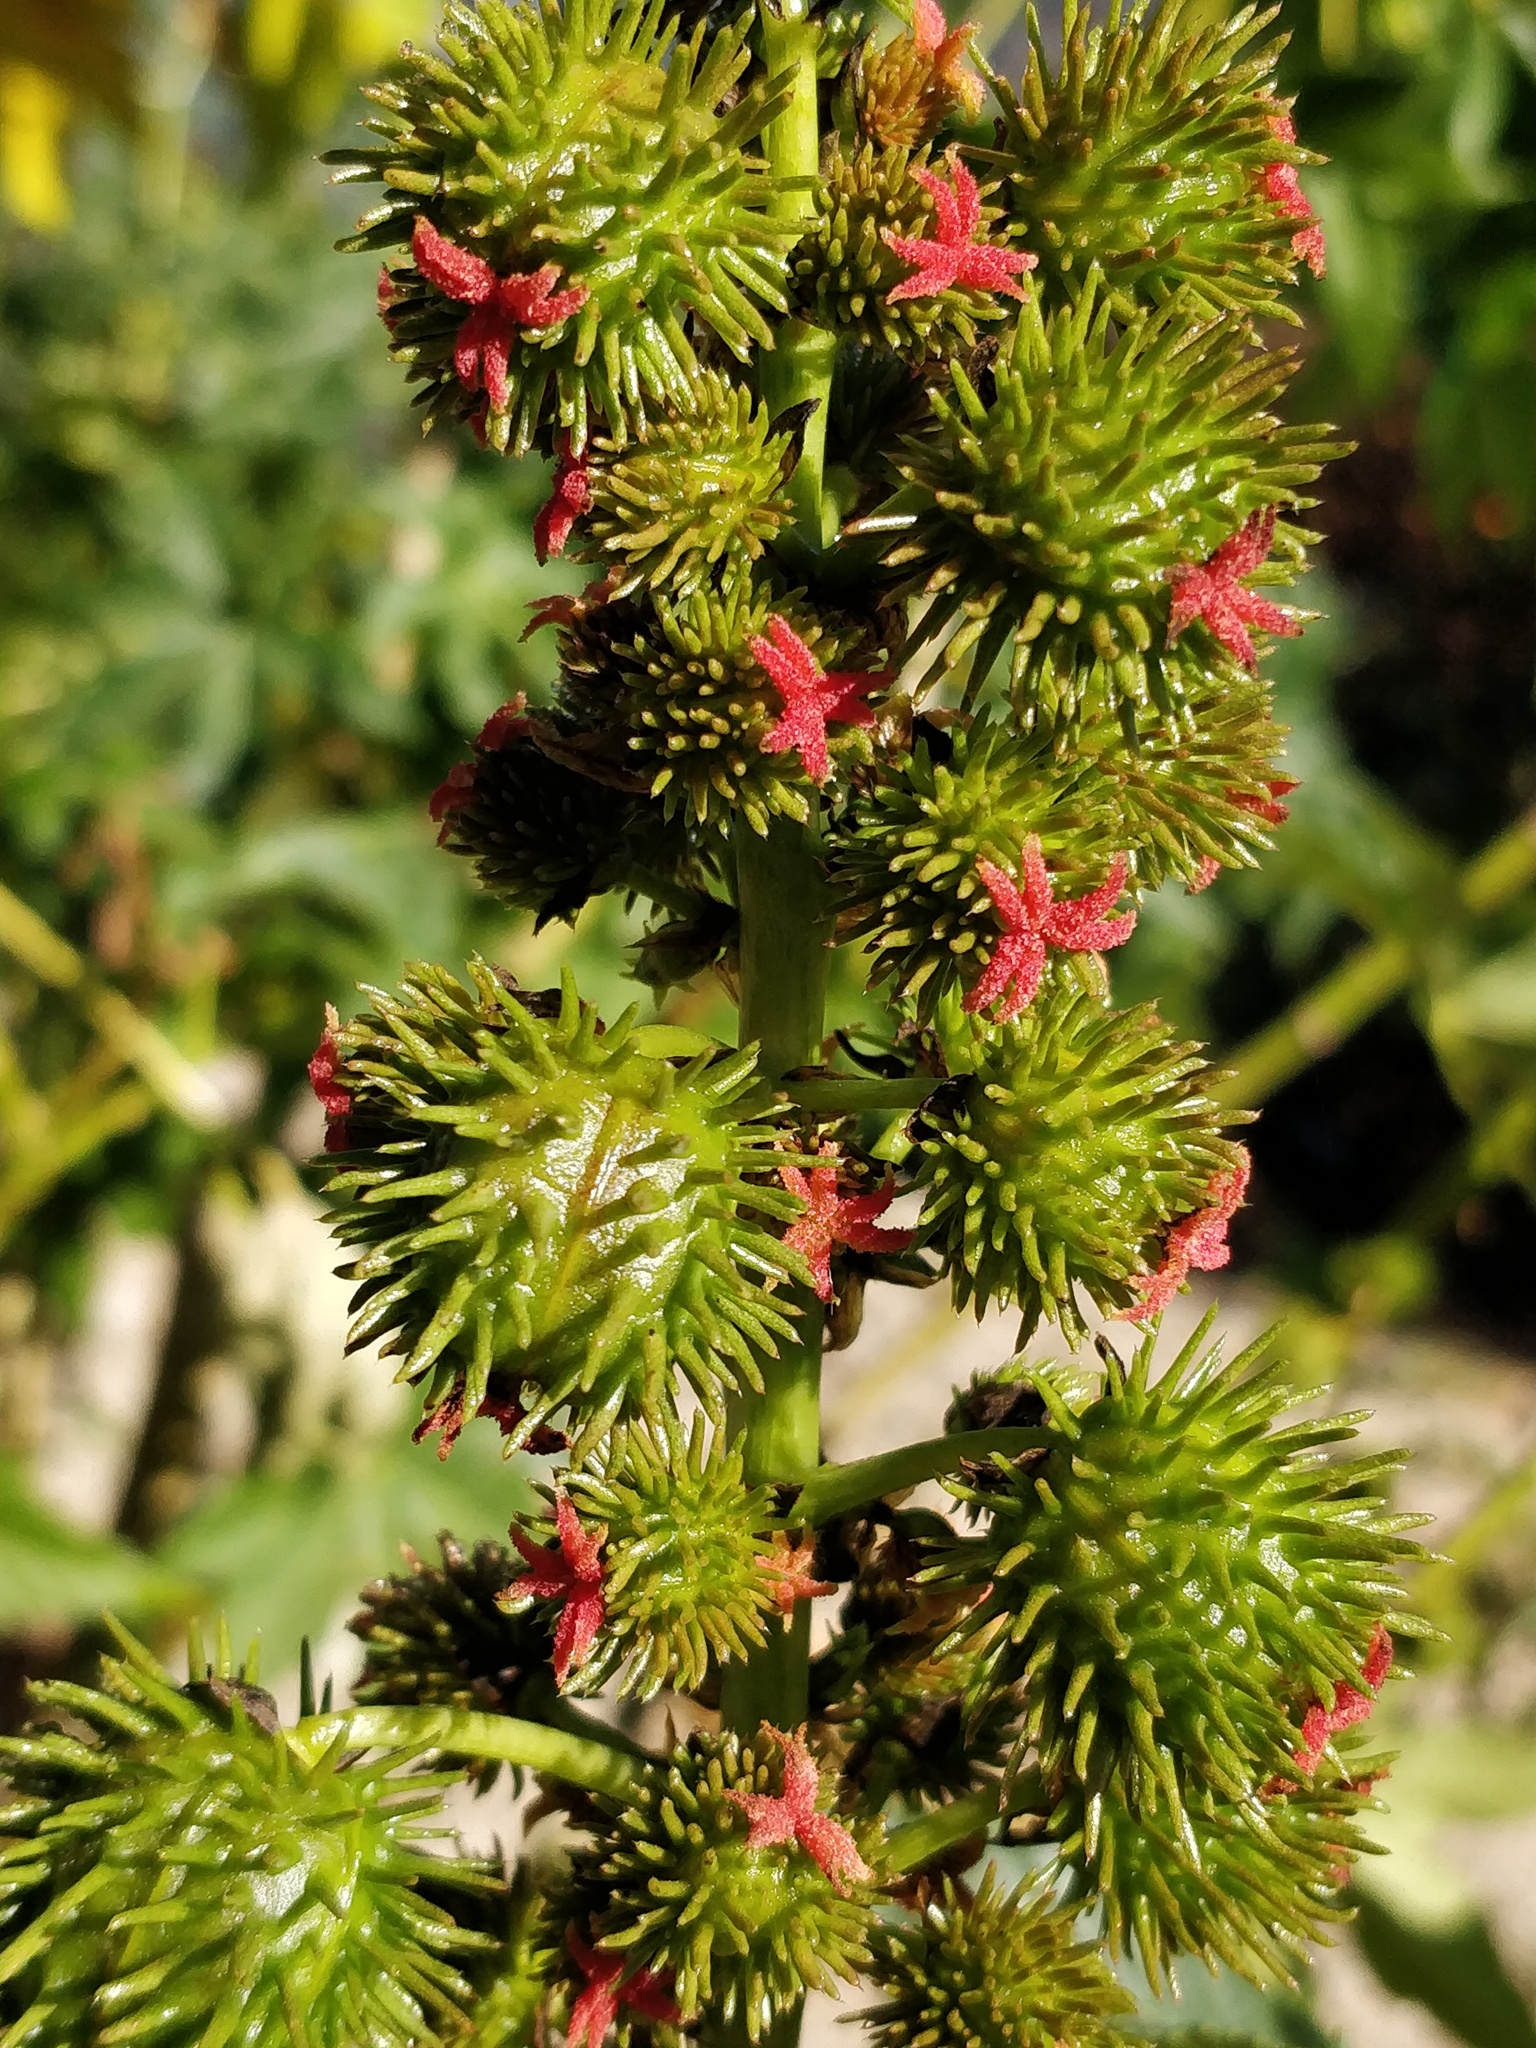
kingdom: Plantae
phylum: Tracheophyta
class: Magnoliopsida
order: Malpighiales
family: Euphorbiaceae
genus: Ricinus
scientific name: Ricinus communis
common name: Castor-oil-plant
